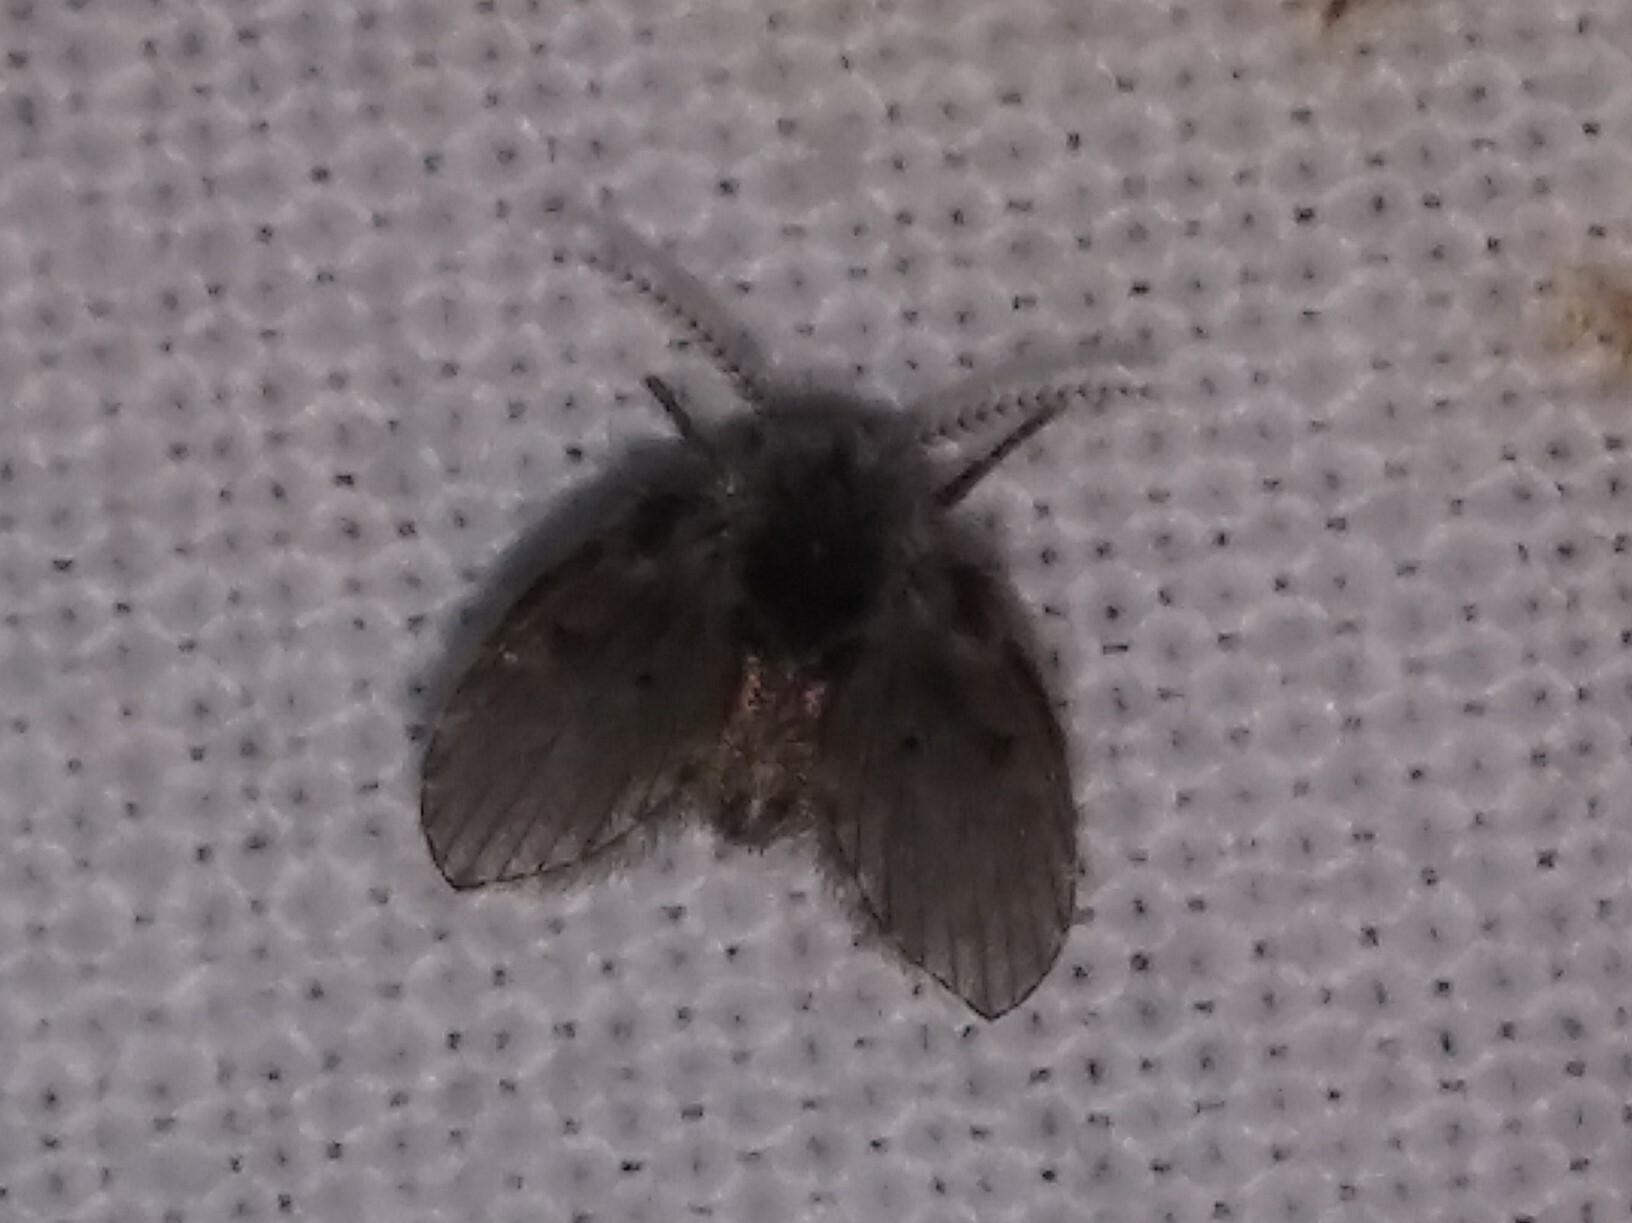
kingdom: Animalia
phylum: Arthropoda
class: Insecta
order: Diptera
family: Psychodidae
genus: Clogmia
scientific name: Clogmia albipunctatus
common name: White-spotted moth fly
